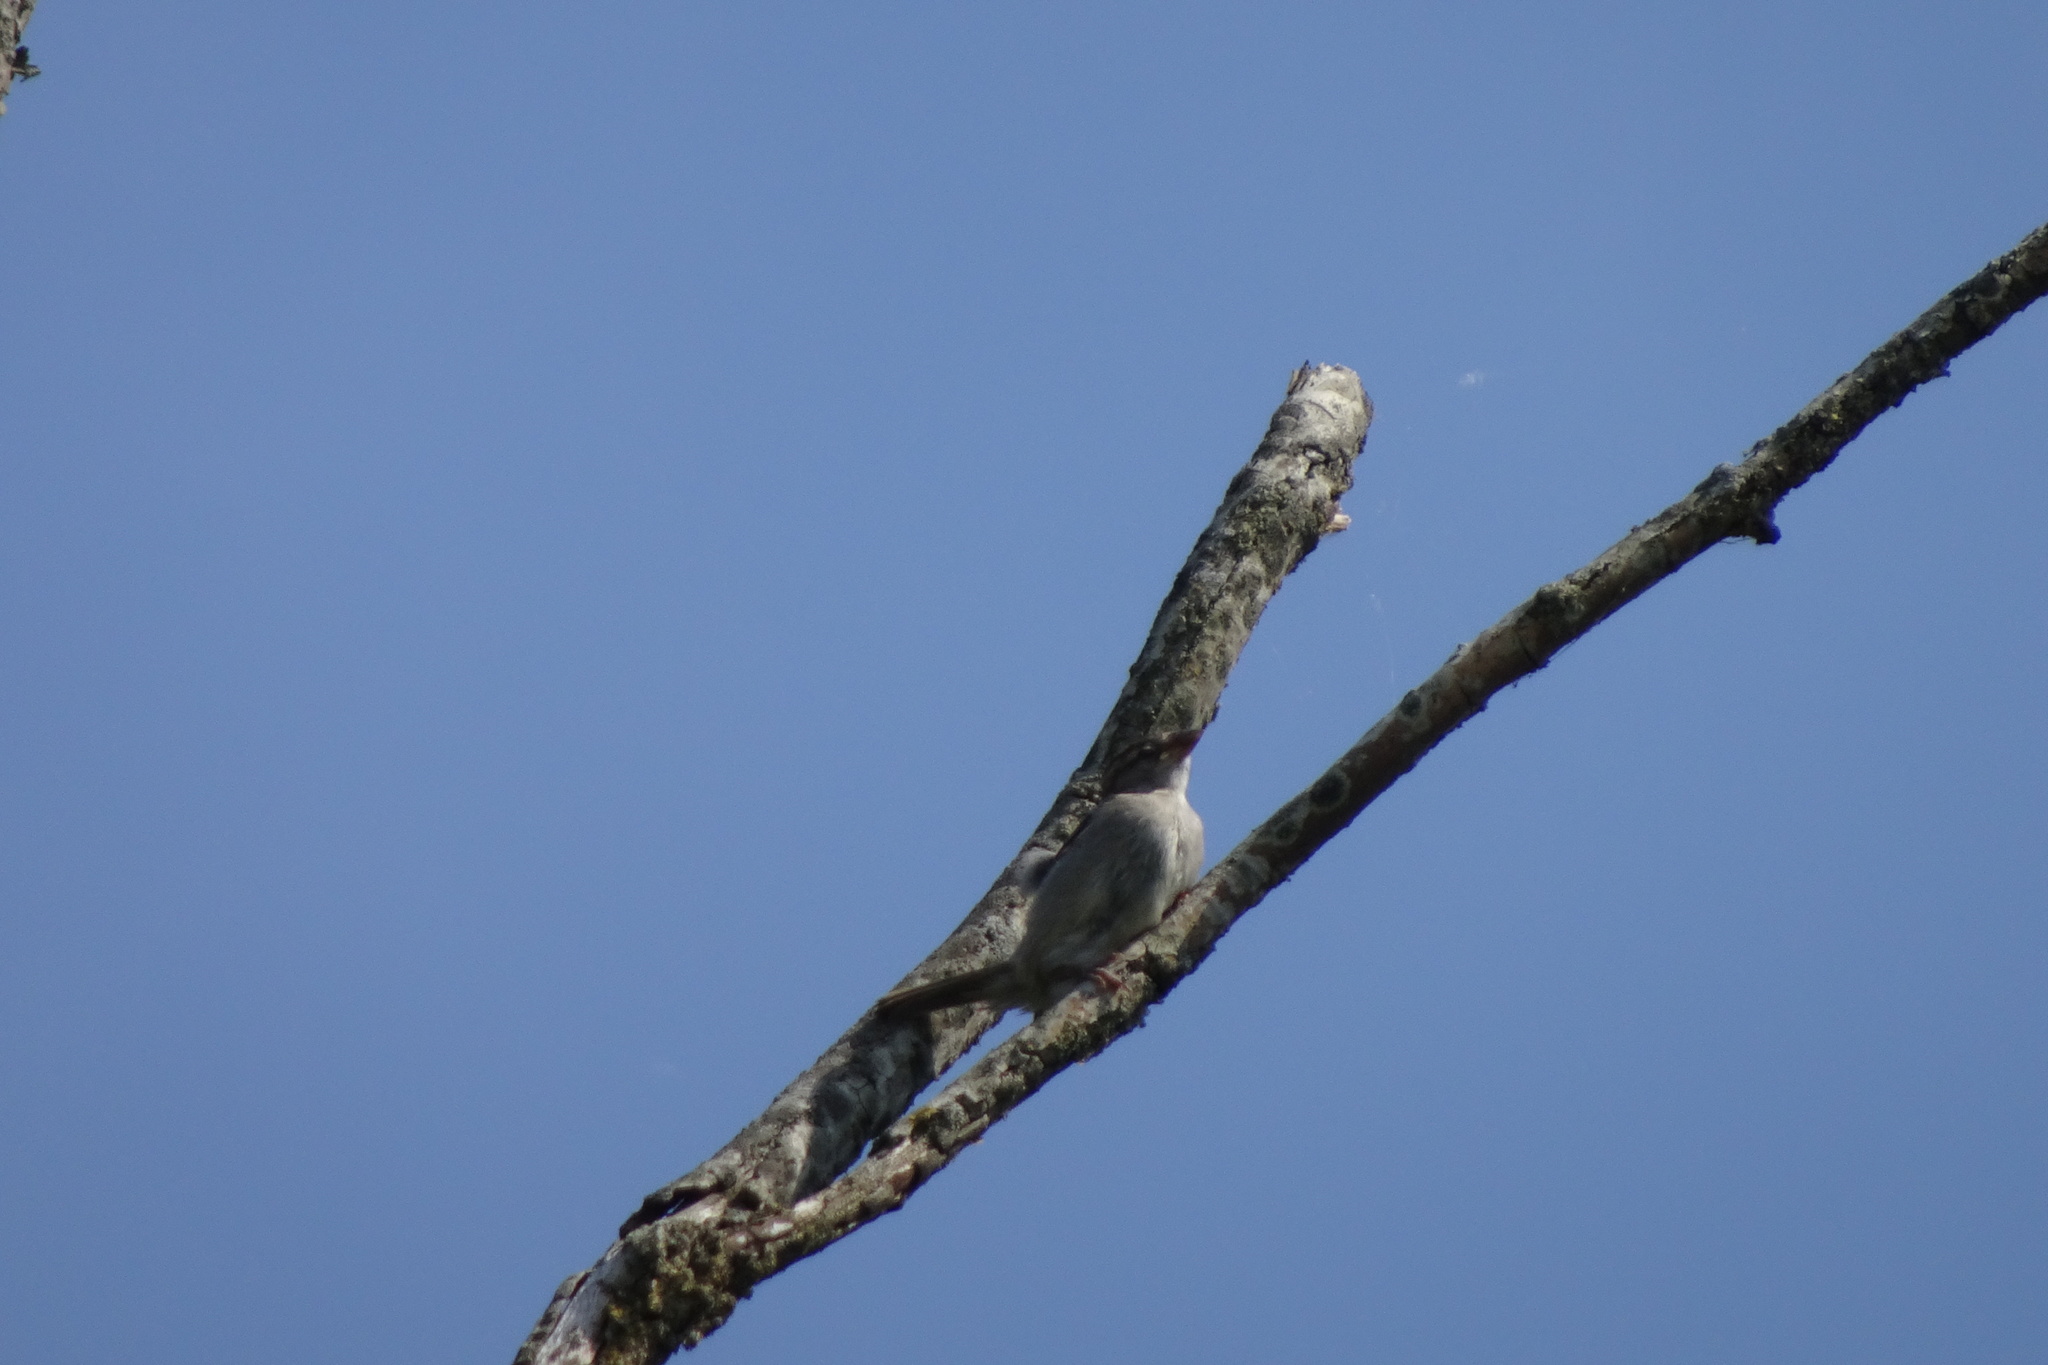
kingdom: Animalia
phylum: Chordata
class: Aves
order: Passeriformes
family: Passeridae
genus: Passer
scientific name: Passer domesticus
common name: House sparrow
